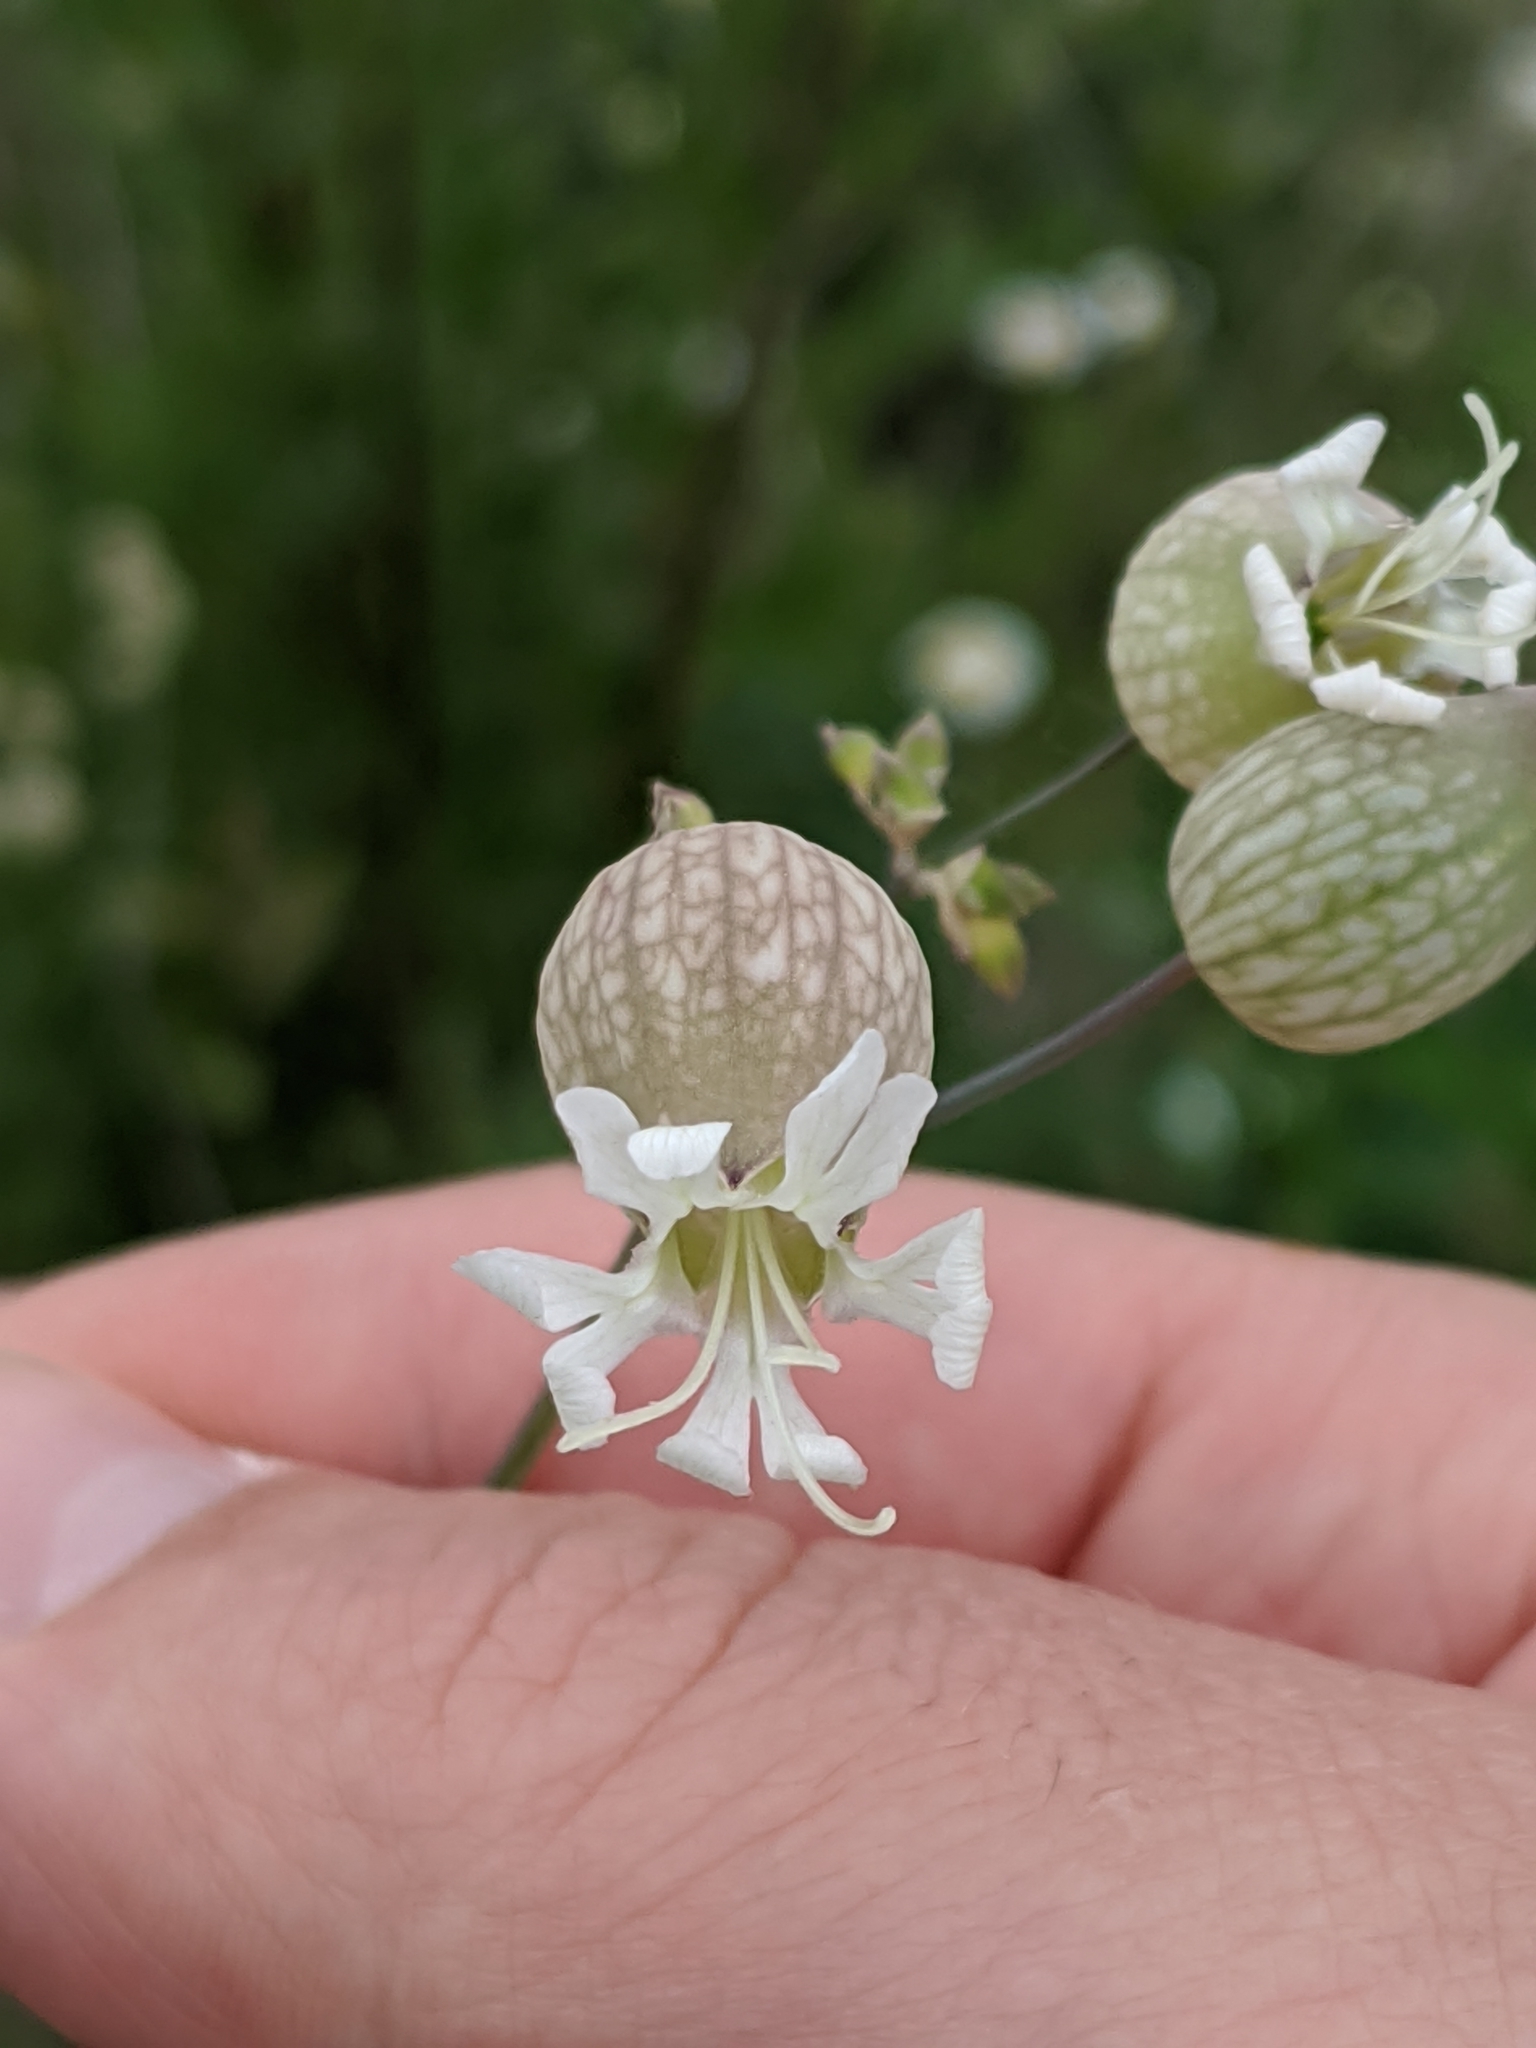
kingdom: Plantae
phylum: Tracheophyta
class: Magnoliopsida
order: Caryophyllales
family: Caryophyllaceae
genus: Silene
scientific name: Silene vulgaris
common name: Bladder campion
